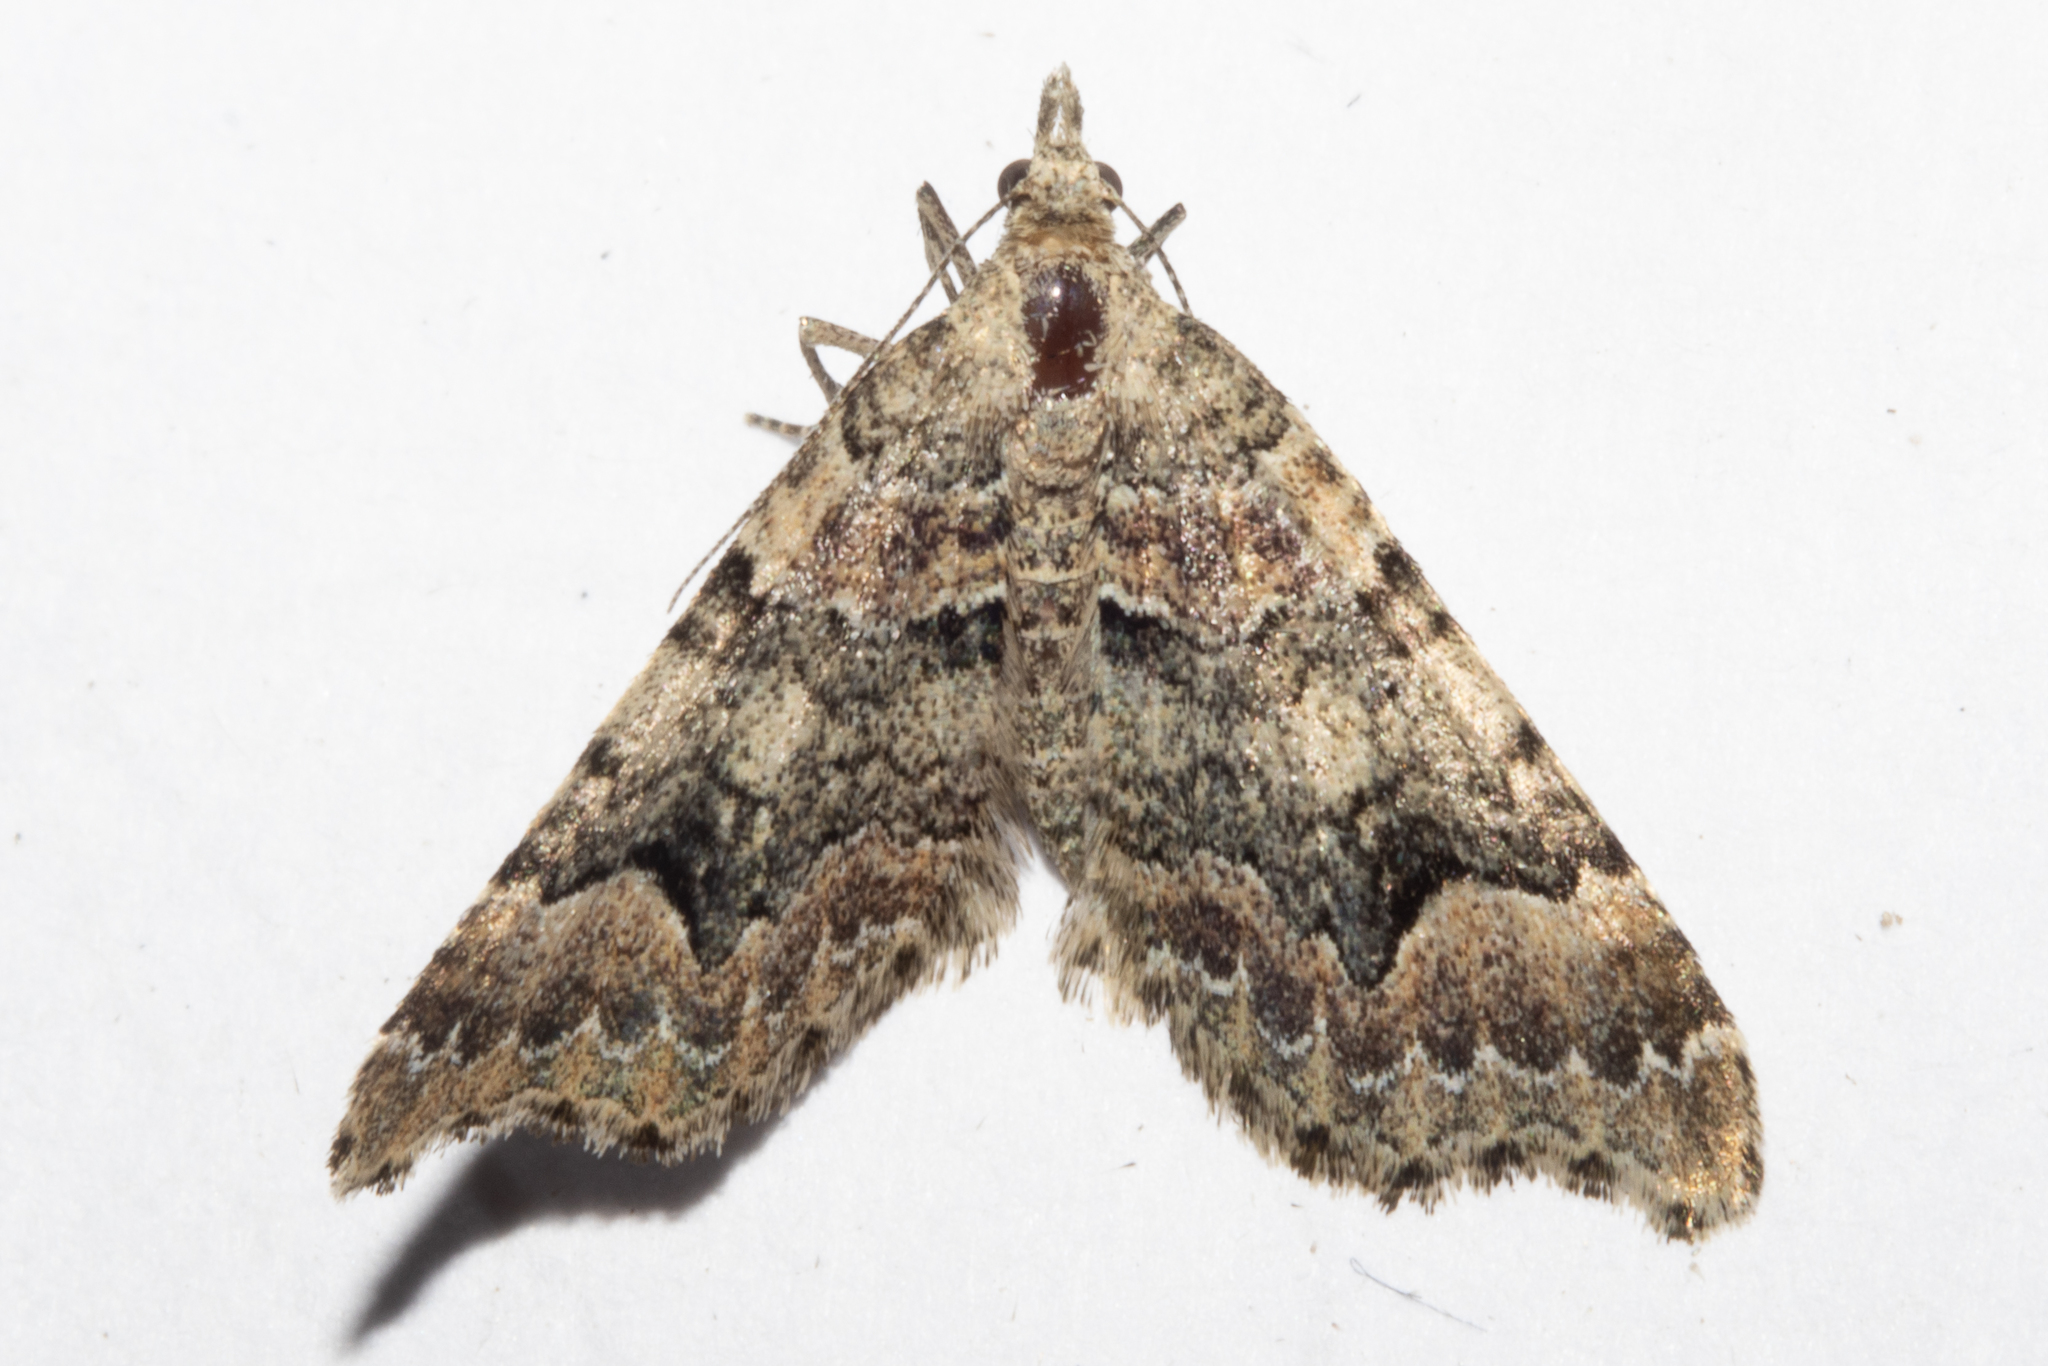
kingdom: Animalia
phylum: Arthropoda
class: Insecta
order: Lepidoptera
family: Geometridae
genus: Helastia
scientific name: Helastia cryptica
